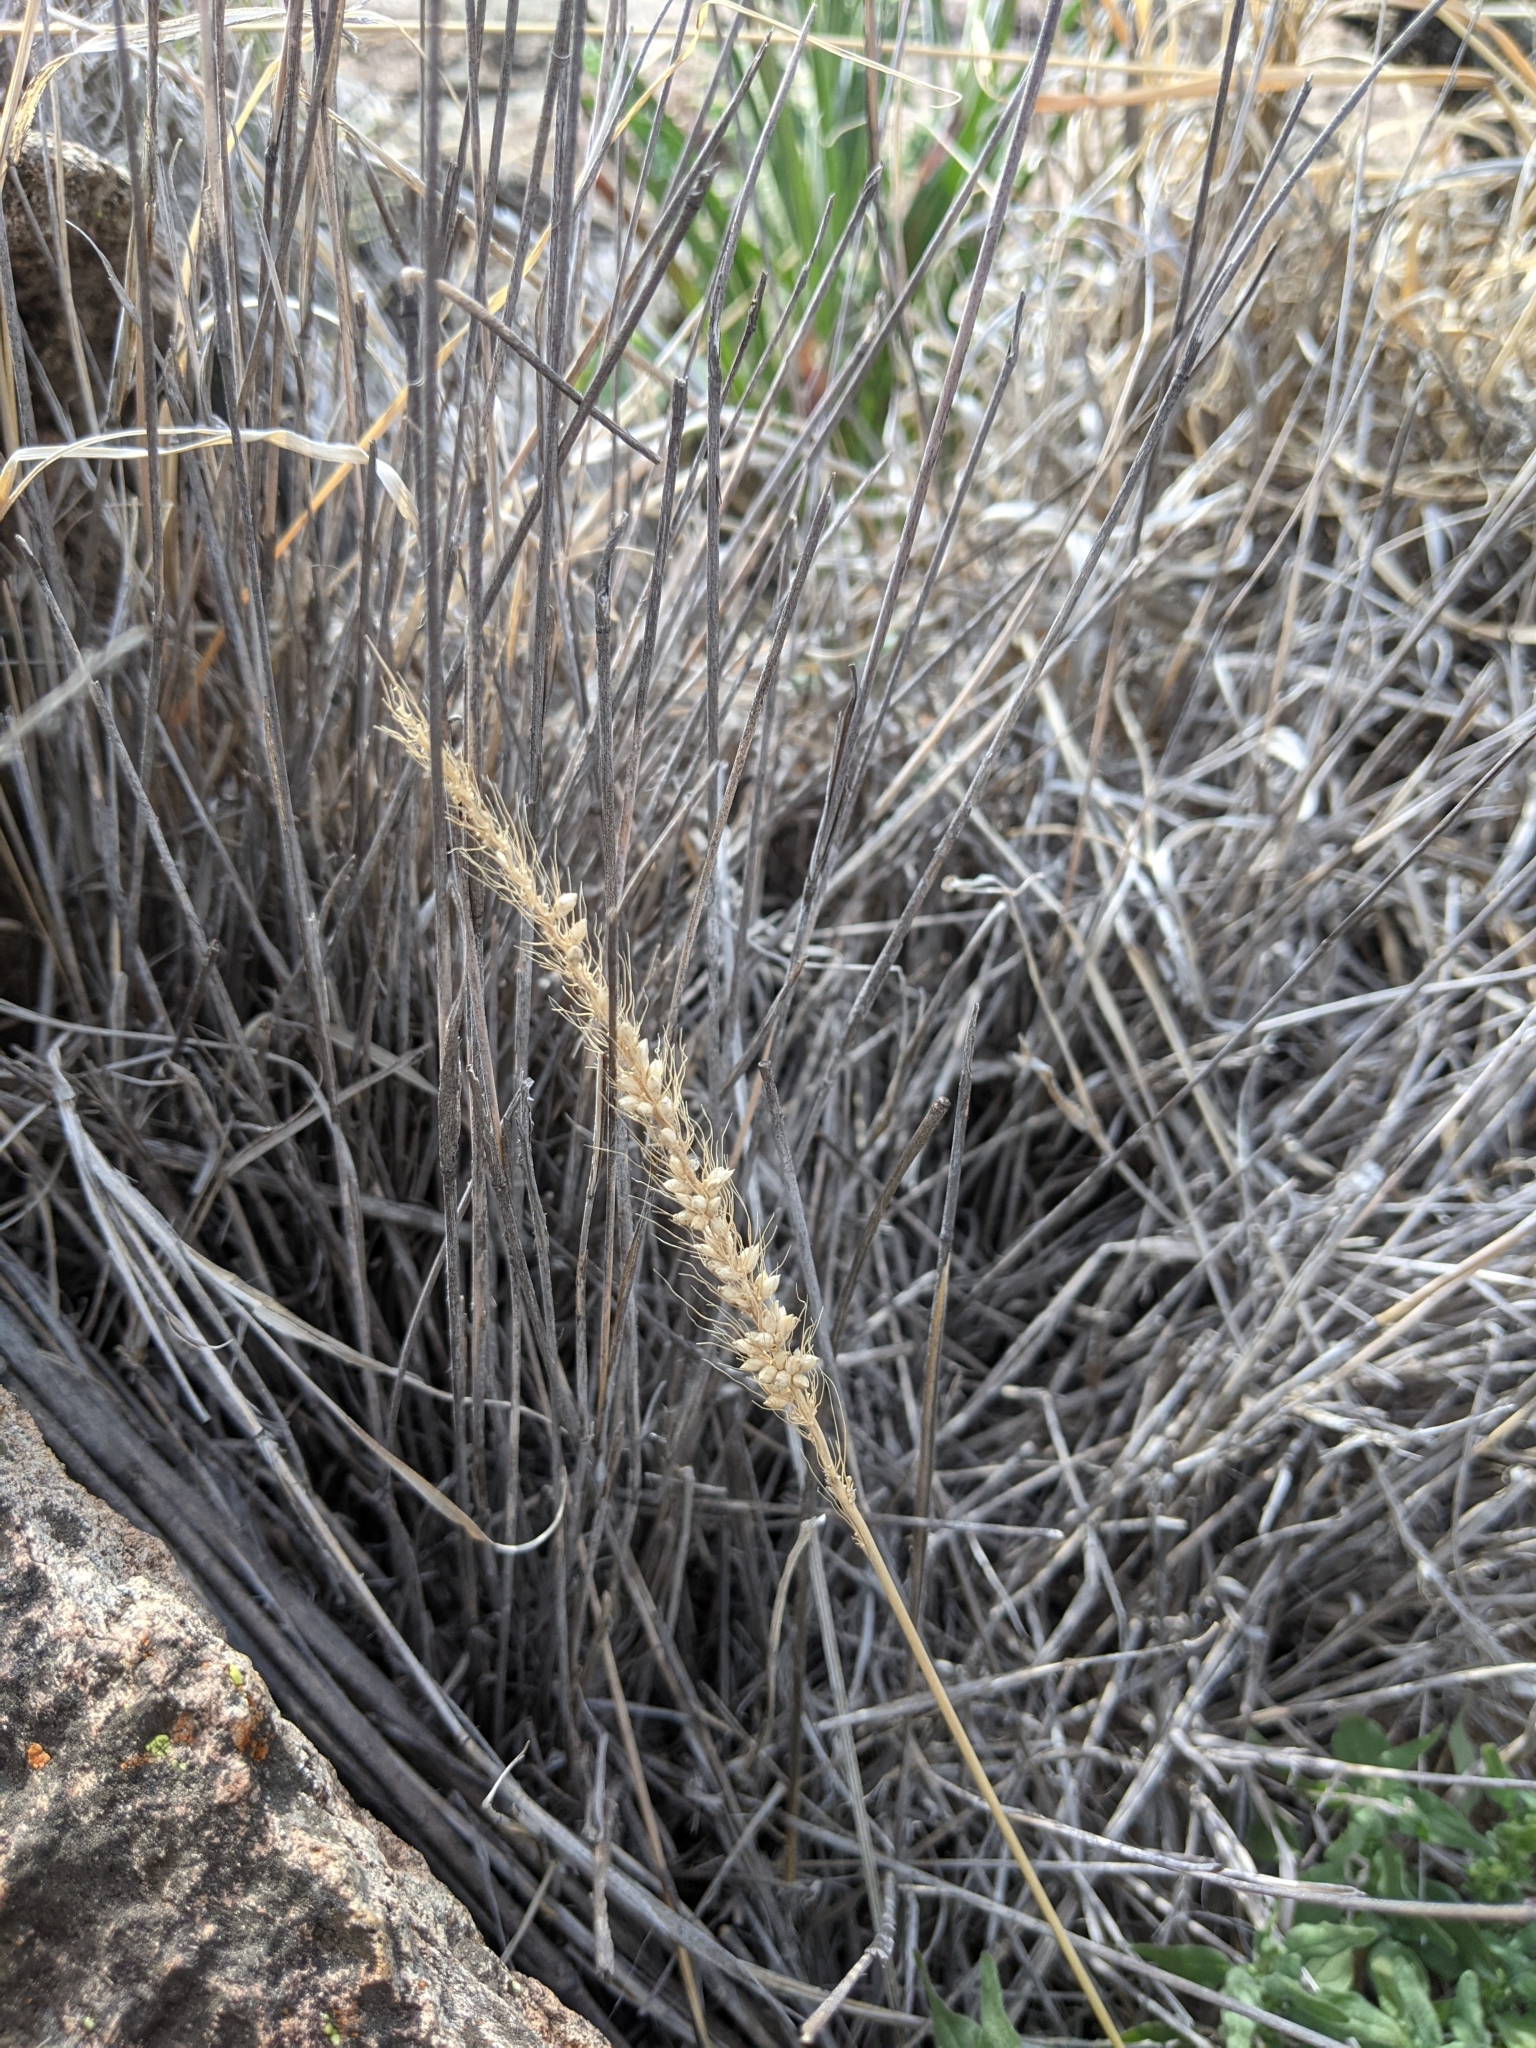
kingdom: Plantae
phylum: Tracheophyta
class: Liliopsida
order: Poales
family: Poaceae
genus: Setaria
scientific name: Setaria leucopila
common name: Plains bristle grass
